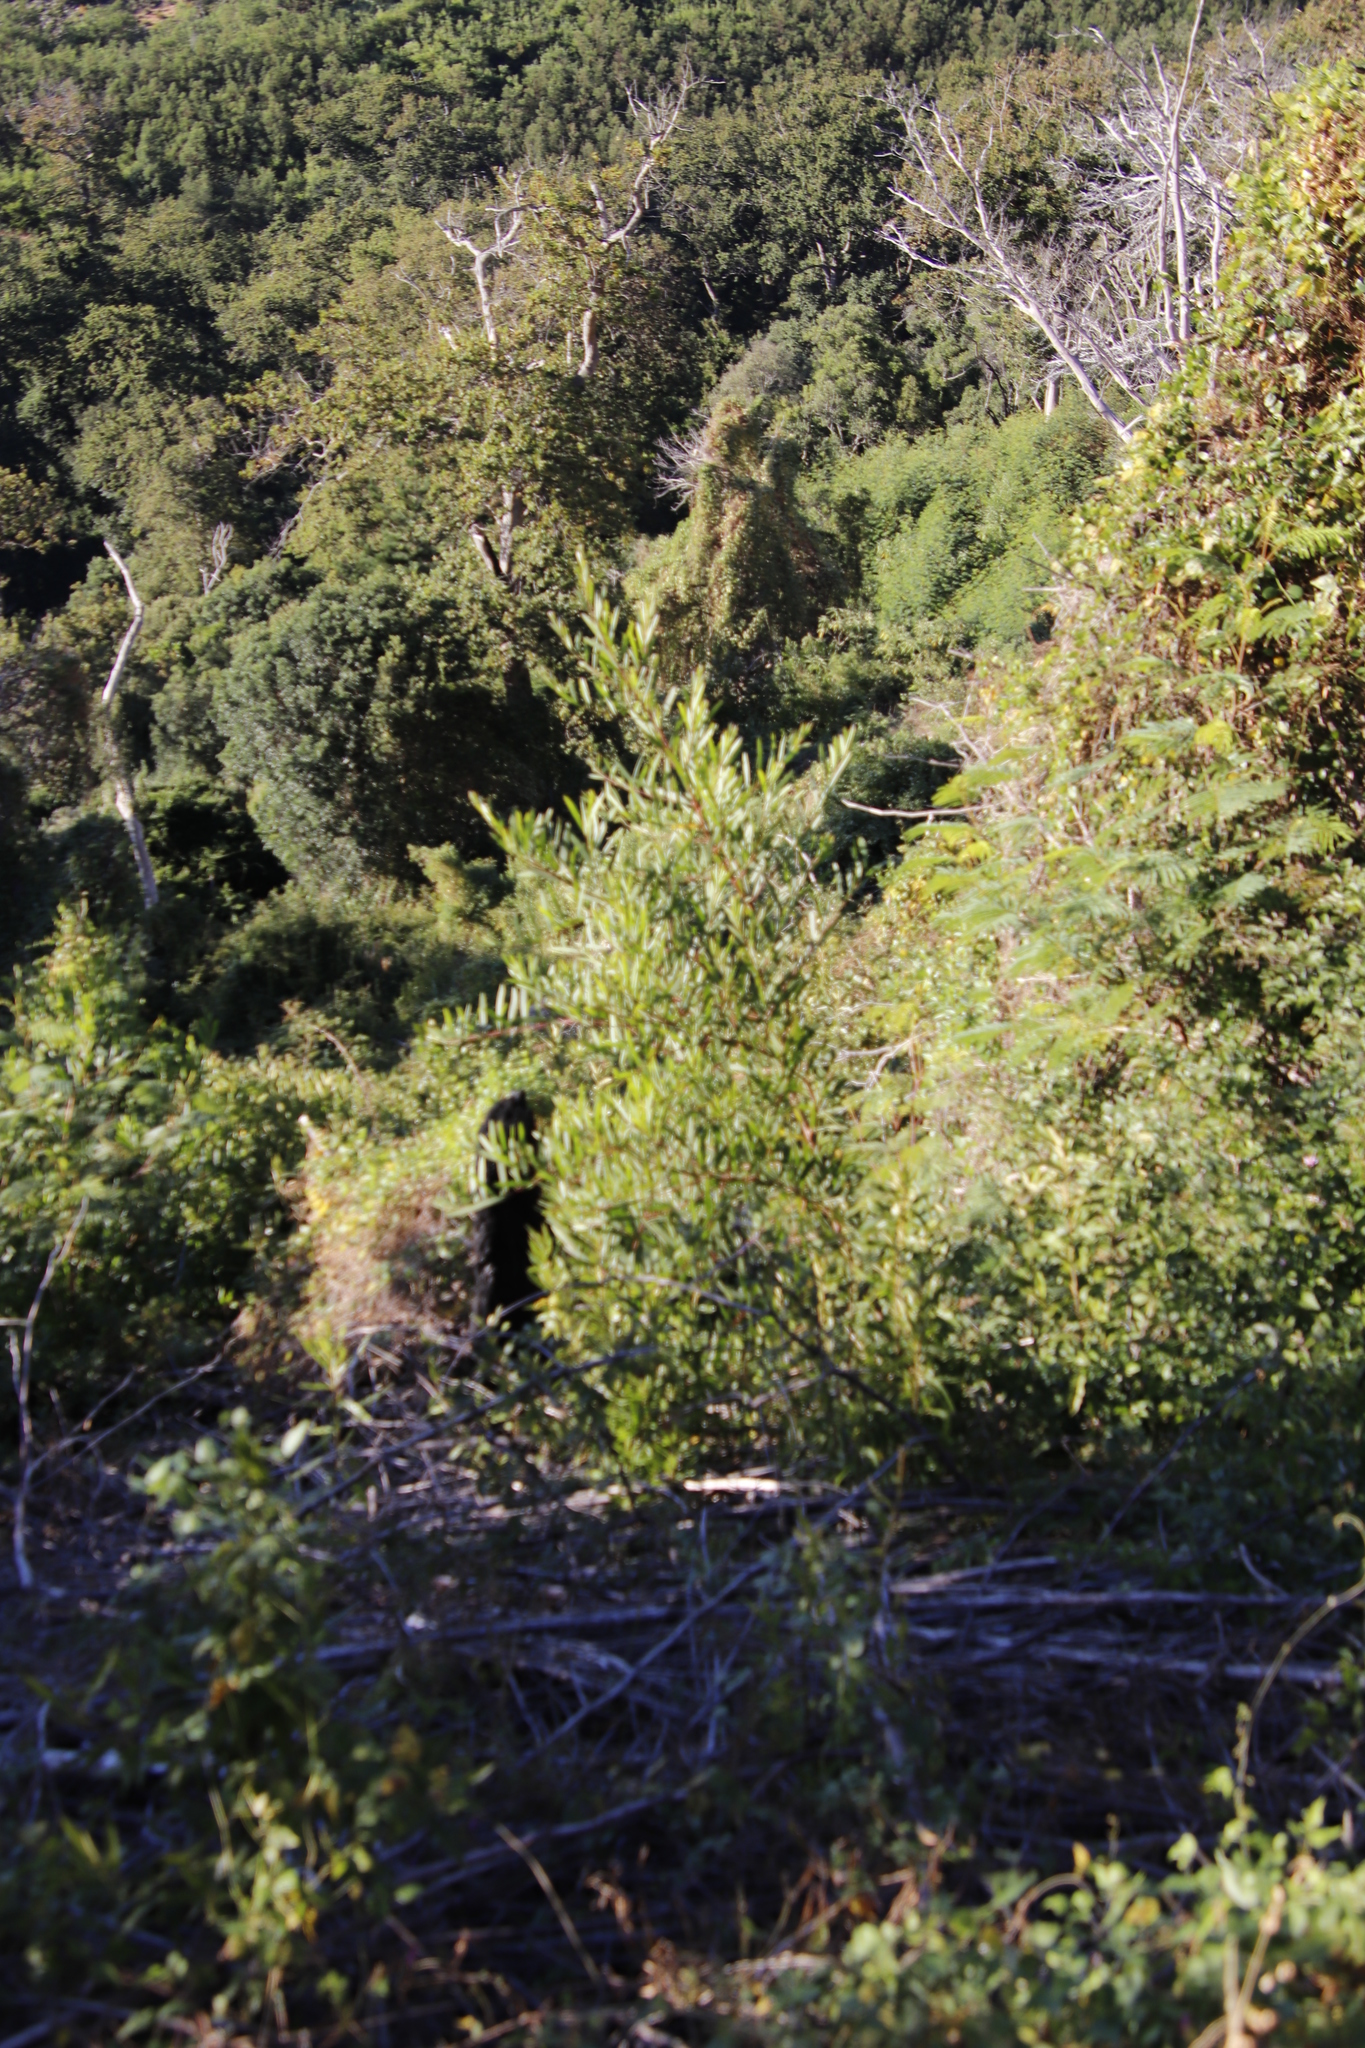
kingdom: Plantae
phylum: Tracheophyta
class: Magnoliopsida
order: Fabales
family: Fabaceae
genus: Acacia
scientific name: Acacia longifolia
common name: Sydney golden wattle
